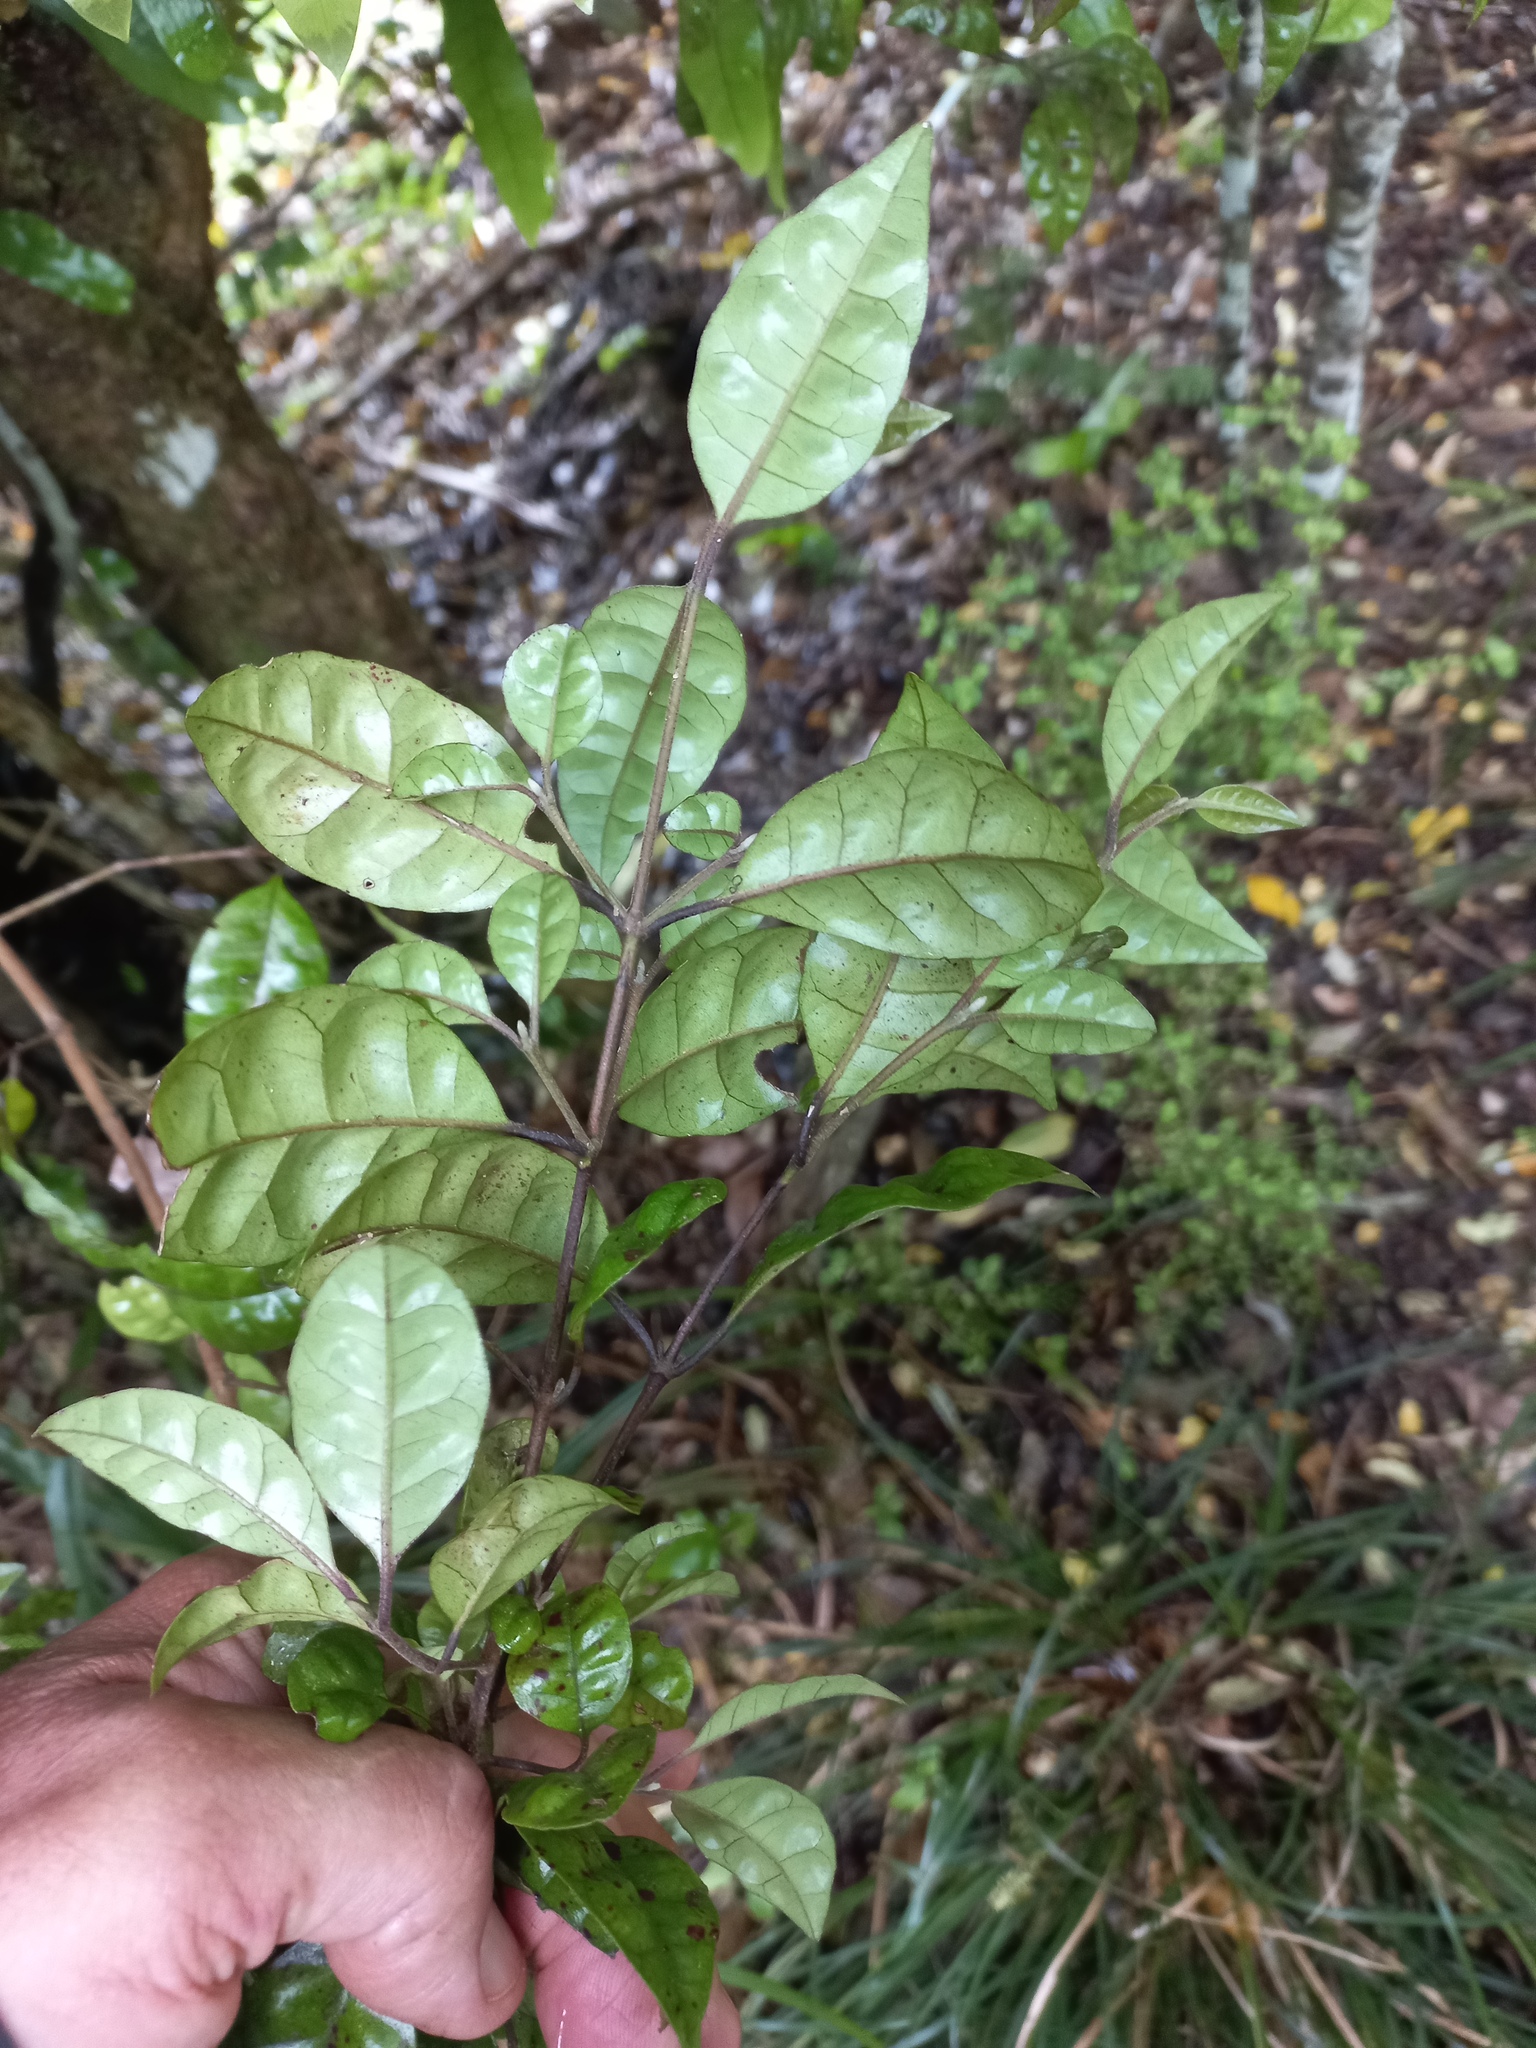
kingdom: Plantae
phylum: Tracheophyta
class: Magnoliopsida
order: Myrtales
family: Myrtaceae
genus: Lophomyrtus
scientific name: Lophomyrtus bullata
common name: Rama rama
